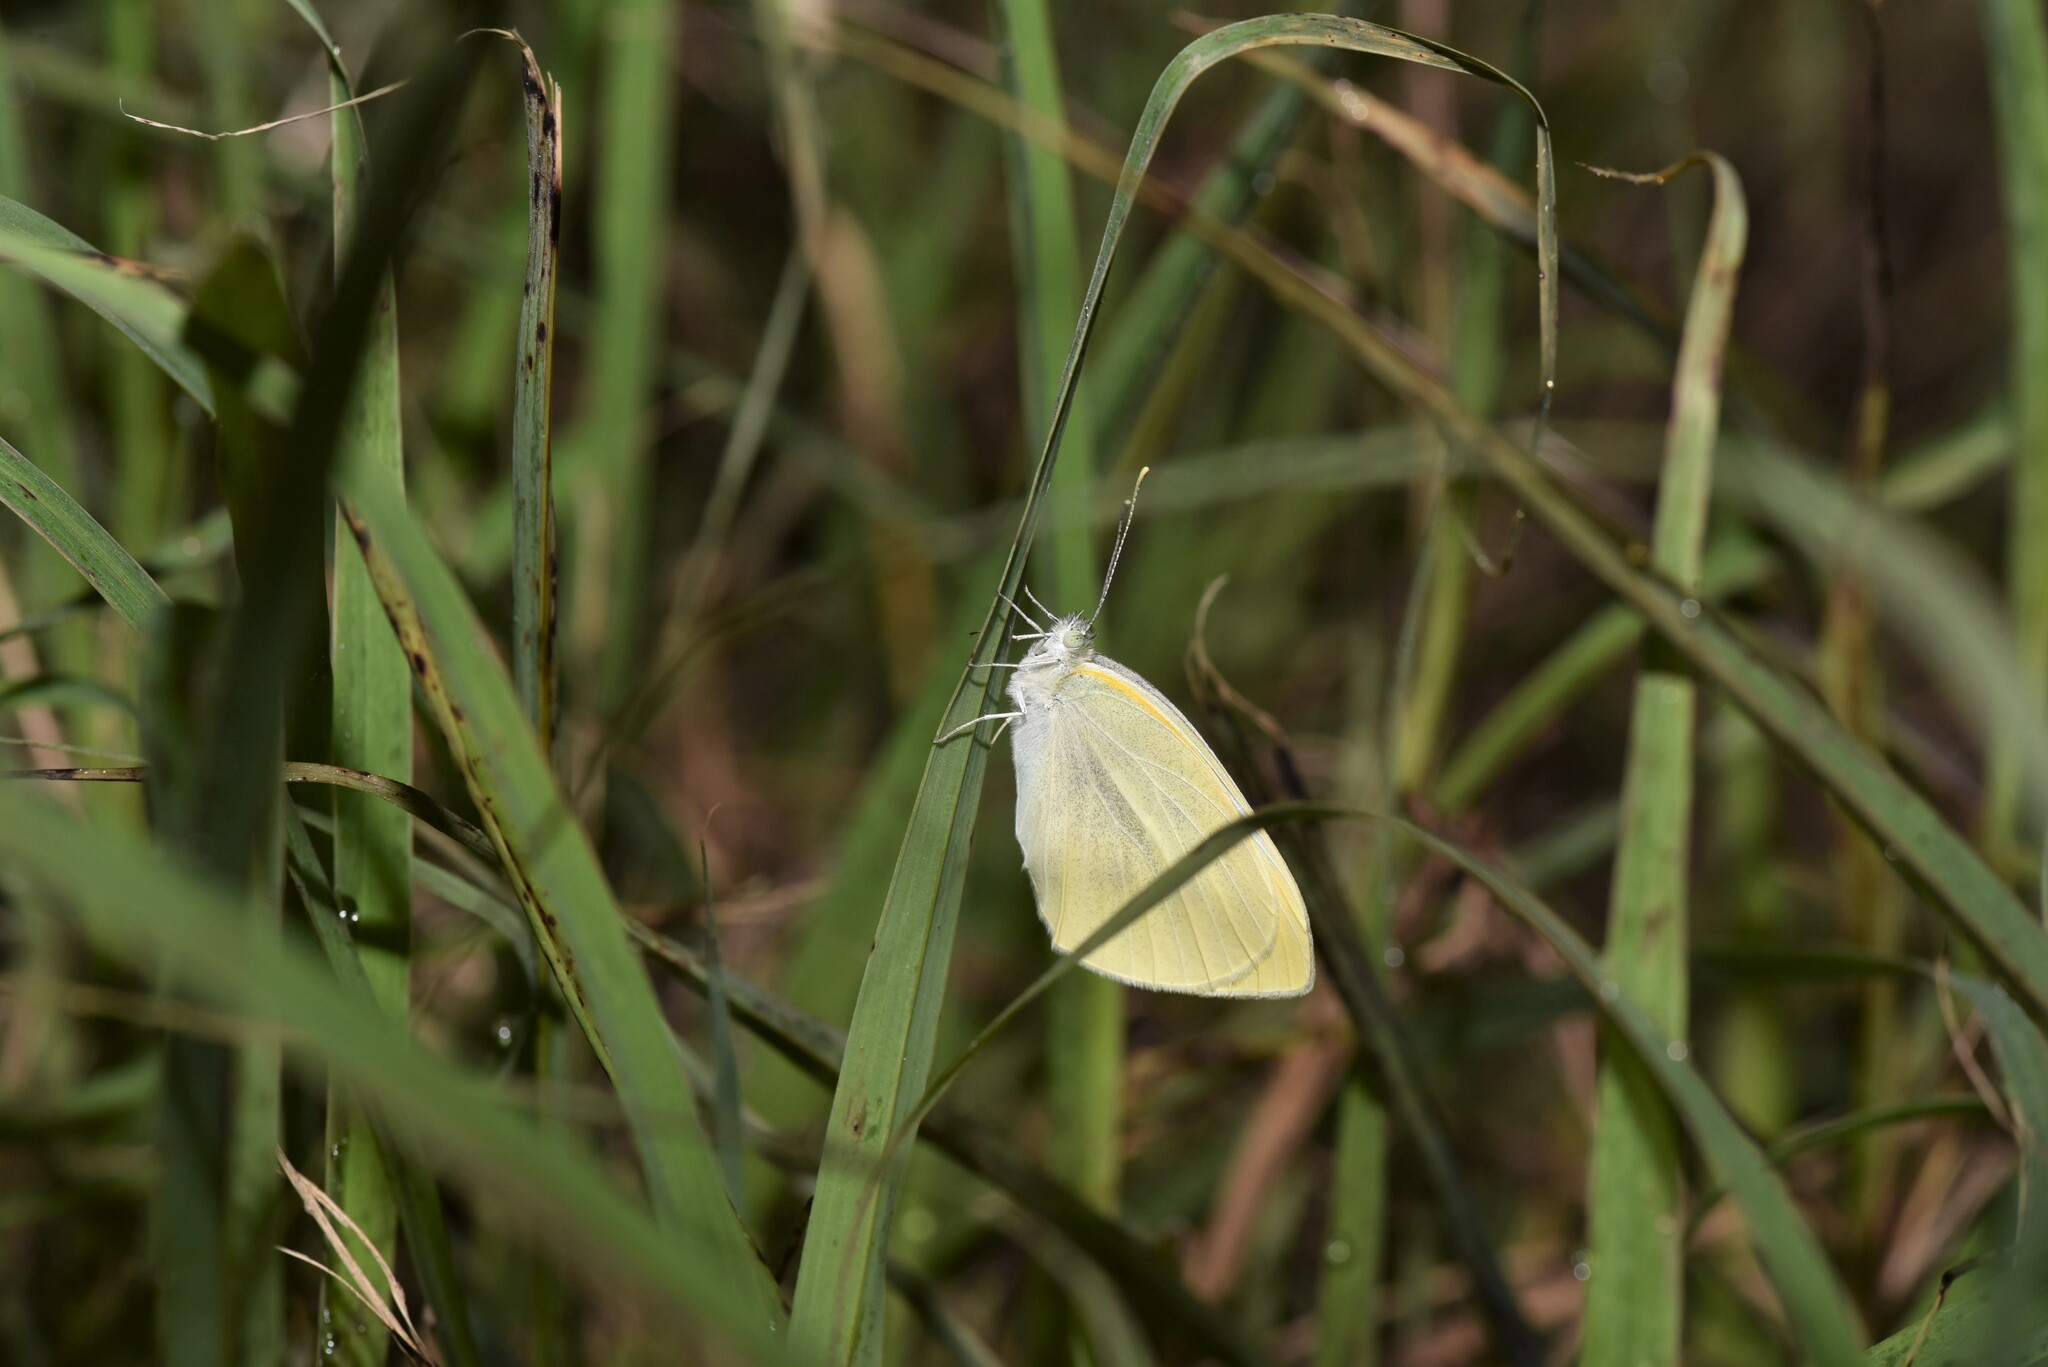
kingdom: Animalia
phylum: Arthropoda
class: Insecta
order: Lepidoptera
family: Pieridae
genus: Pieris
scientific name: Pieris rapae
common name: Small white
